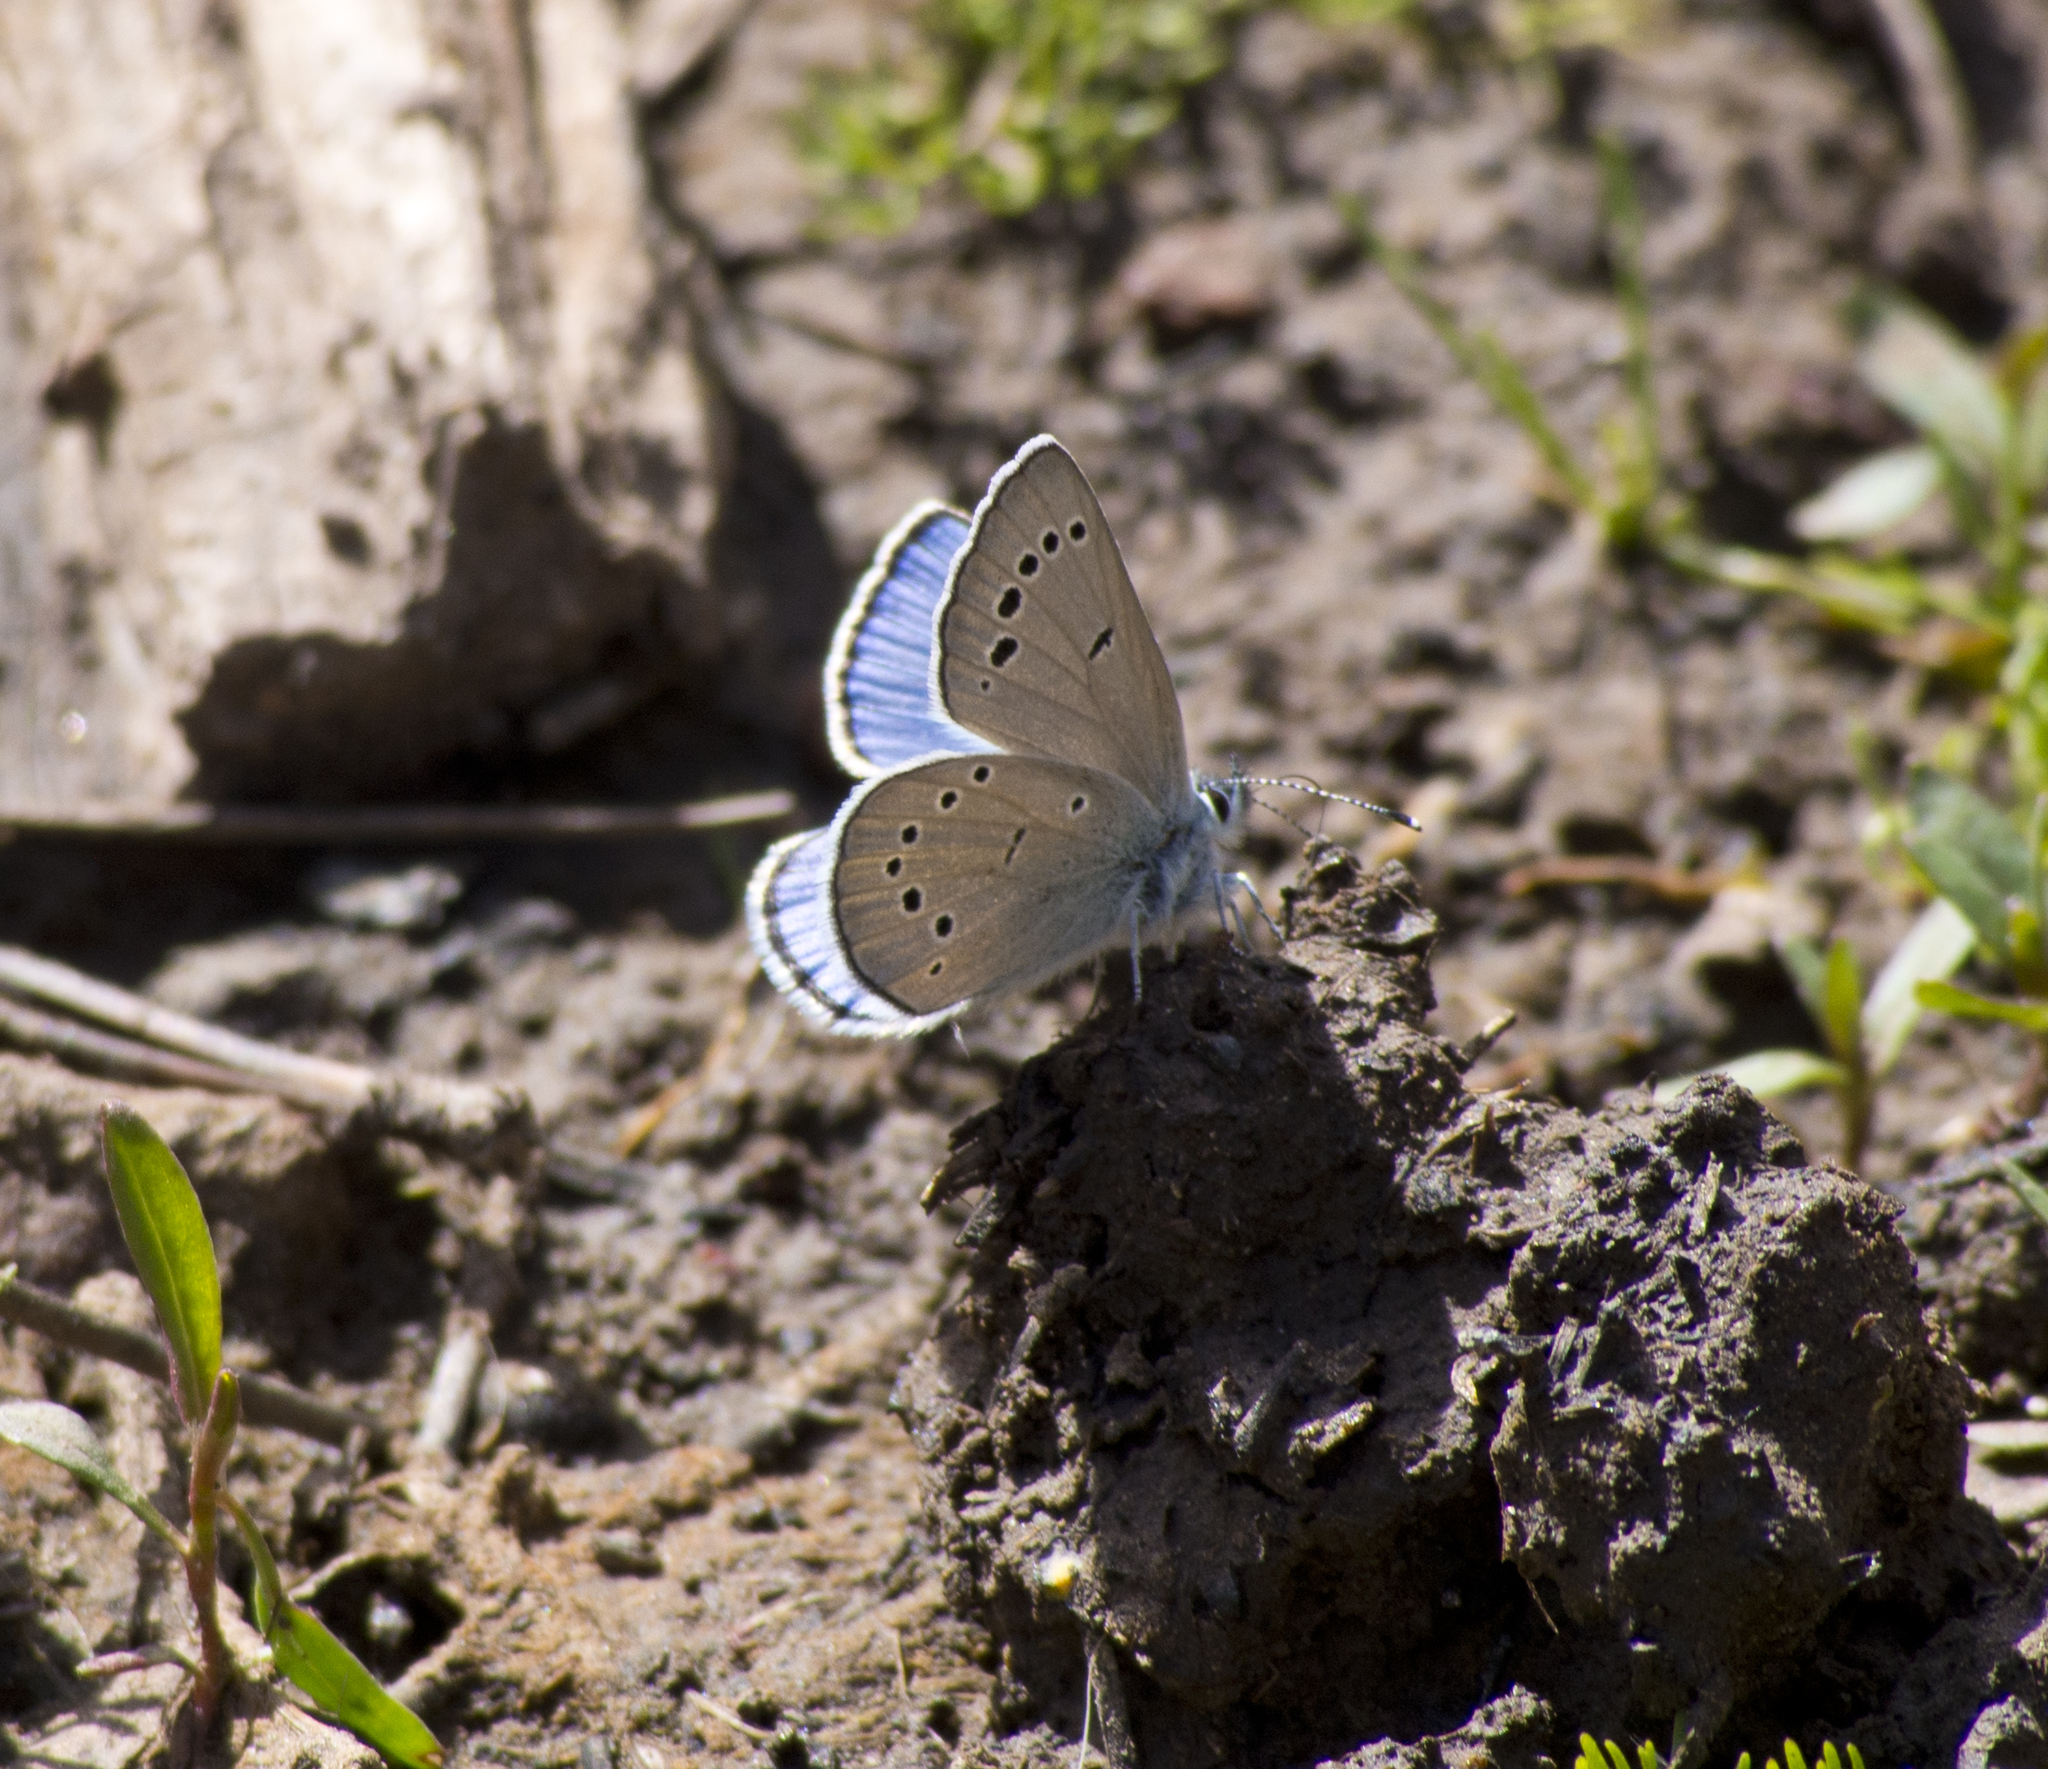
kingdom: Animalia
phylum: Arthropoda
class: Insecta
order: Lepidoptera
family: Lycaenidae
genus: Glaucopsyche
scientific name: Glaucopsyche lygdamus
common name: Silvery blue
